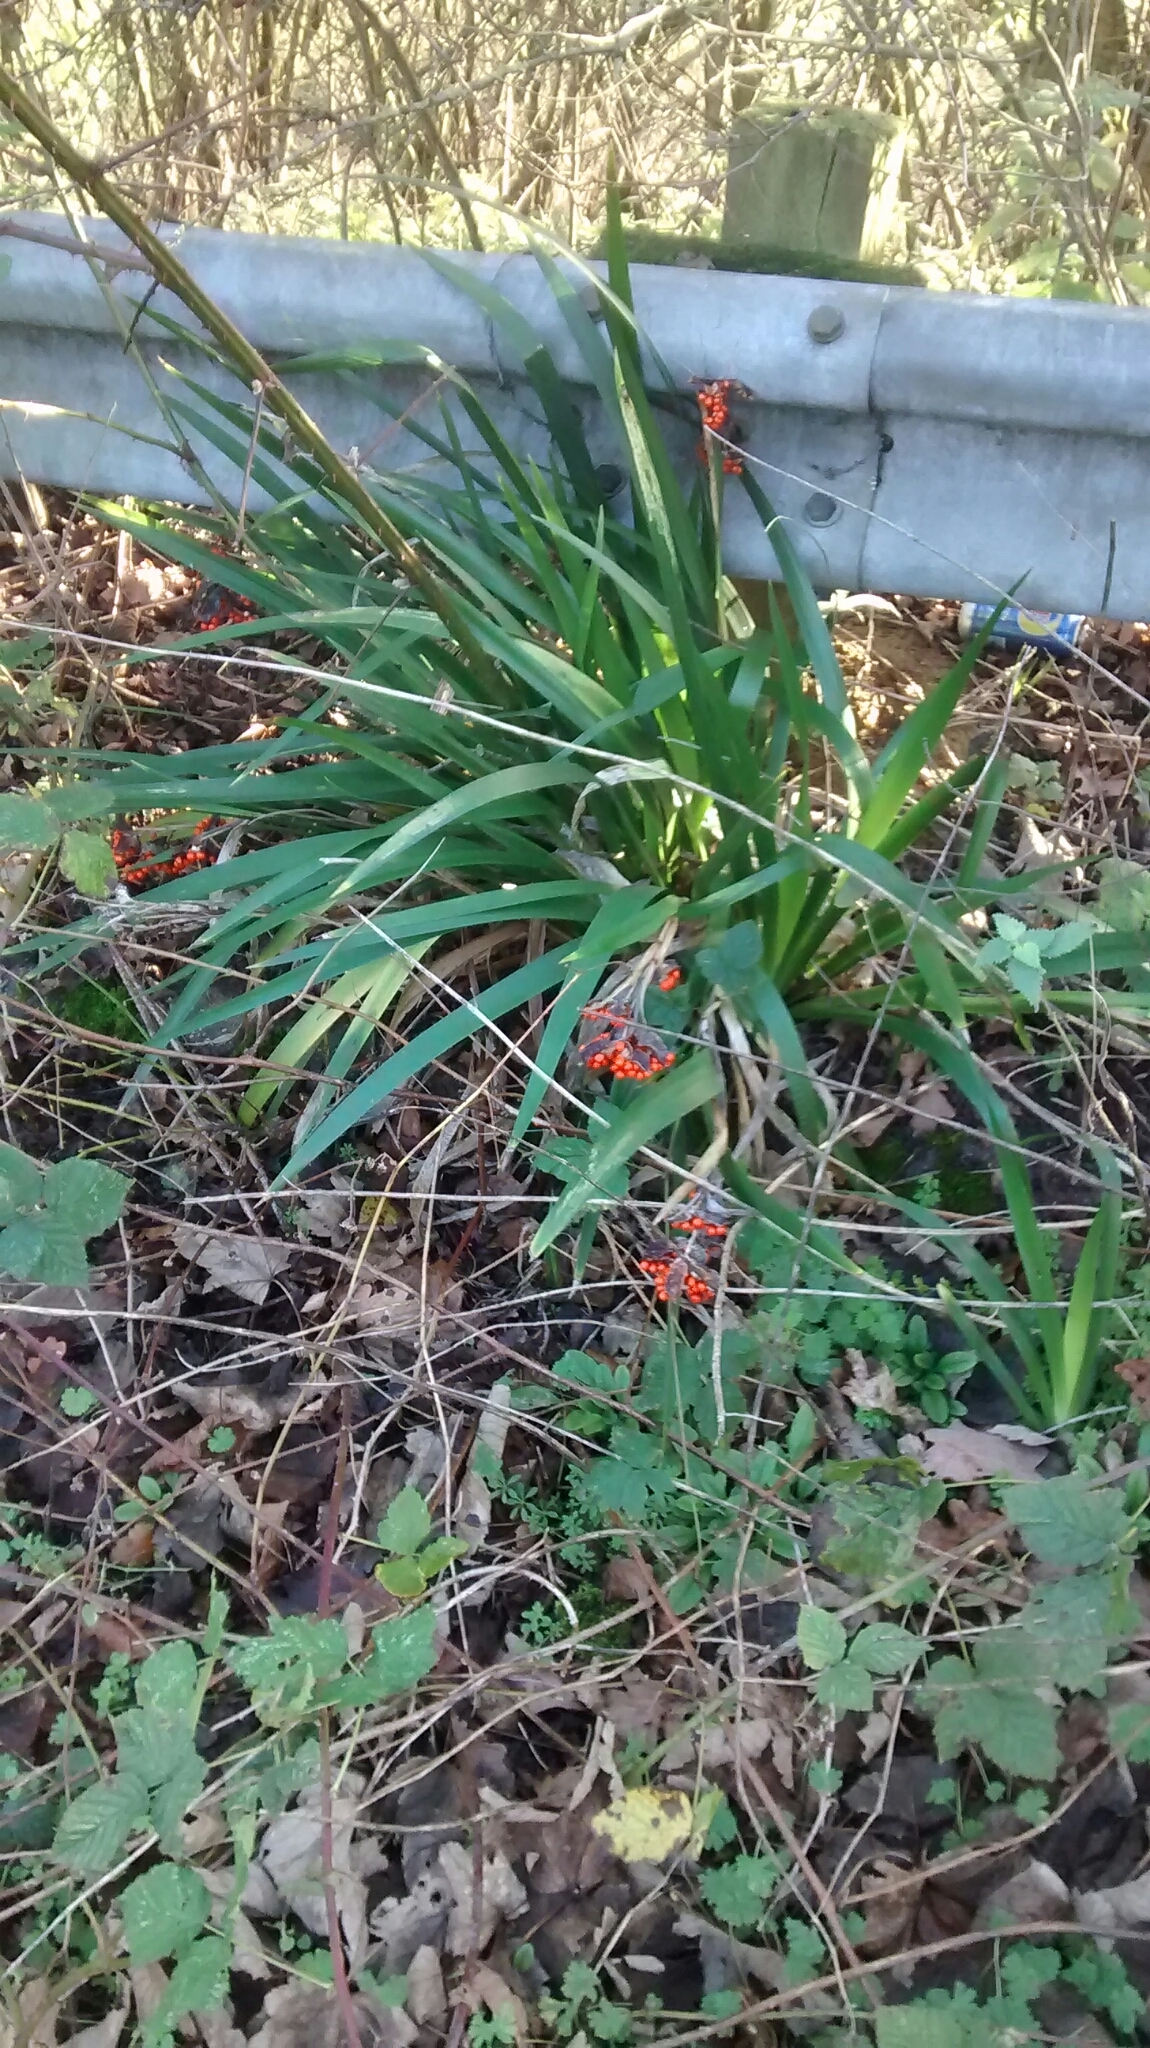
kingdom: Plantae
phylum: Tracheophyta
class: Liliopsida
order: Asparagales
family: Iridaceae
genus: Iris
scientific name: Iris foetidissima
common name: Stinking iris
